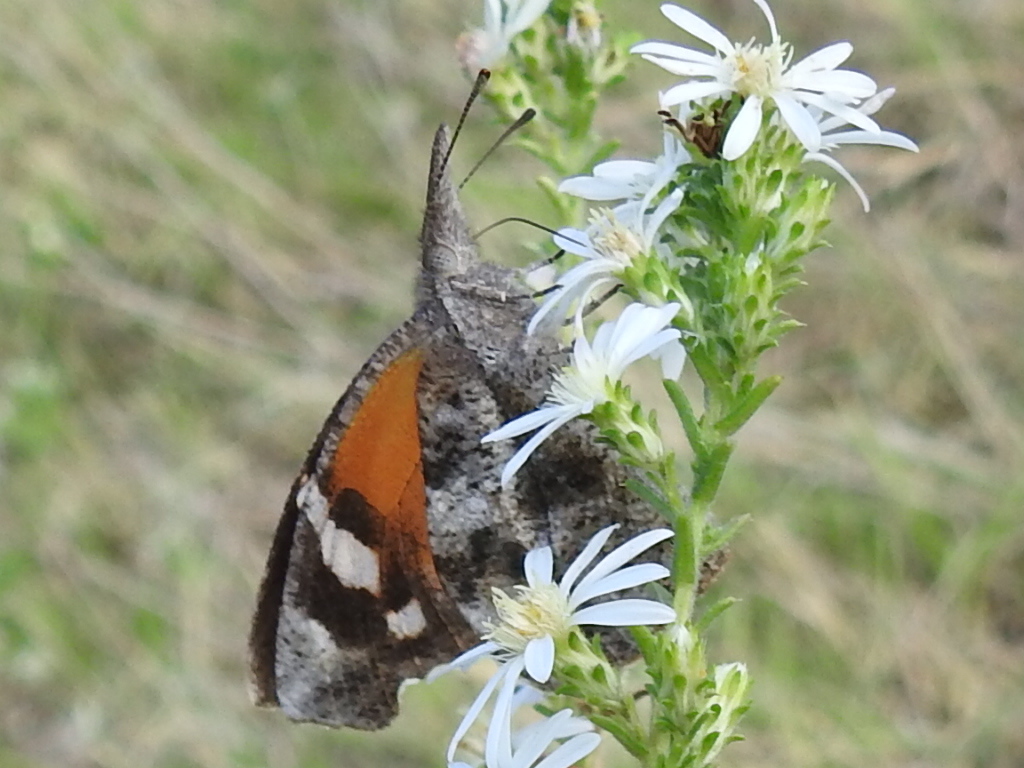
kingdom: Animalia
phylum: Arthropoda
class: Insecta
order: Lepidoptera
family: Nymphalidae
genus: Libytheana
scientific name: Libytheana carinenta
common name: American snout
